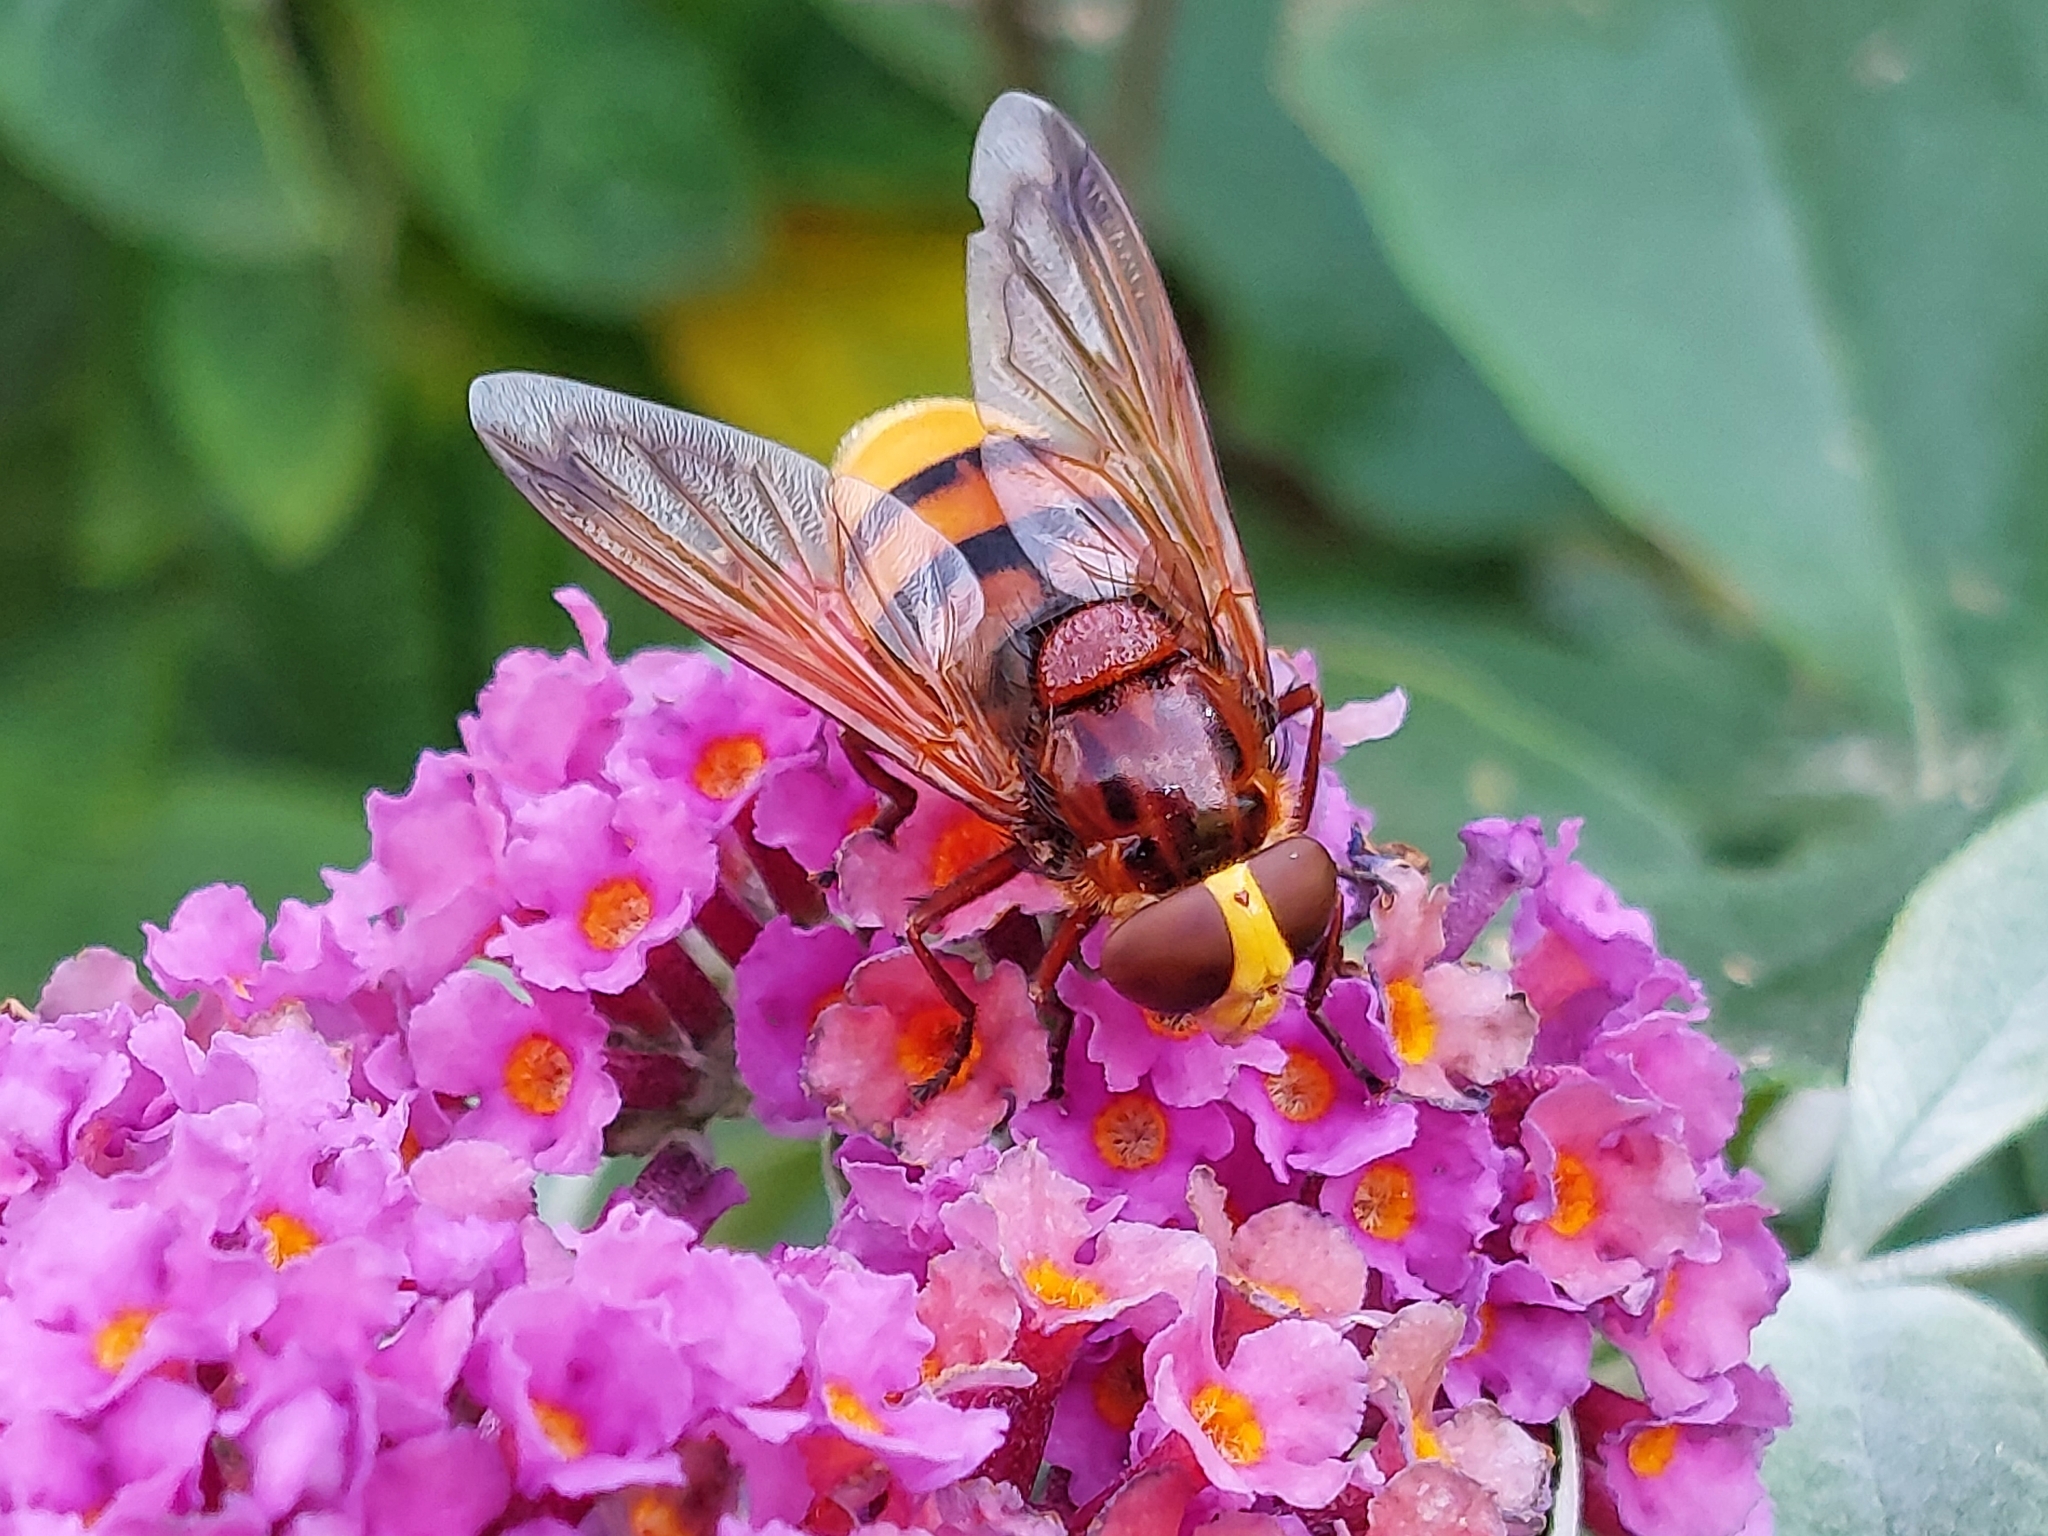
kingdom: Animalia
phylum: Arthropoda
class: Insecta
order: Diptera
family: Syrphidae
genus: Volucella
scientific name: Volucella zonaria
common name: Hornet hoverfly
